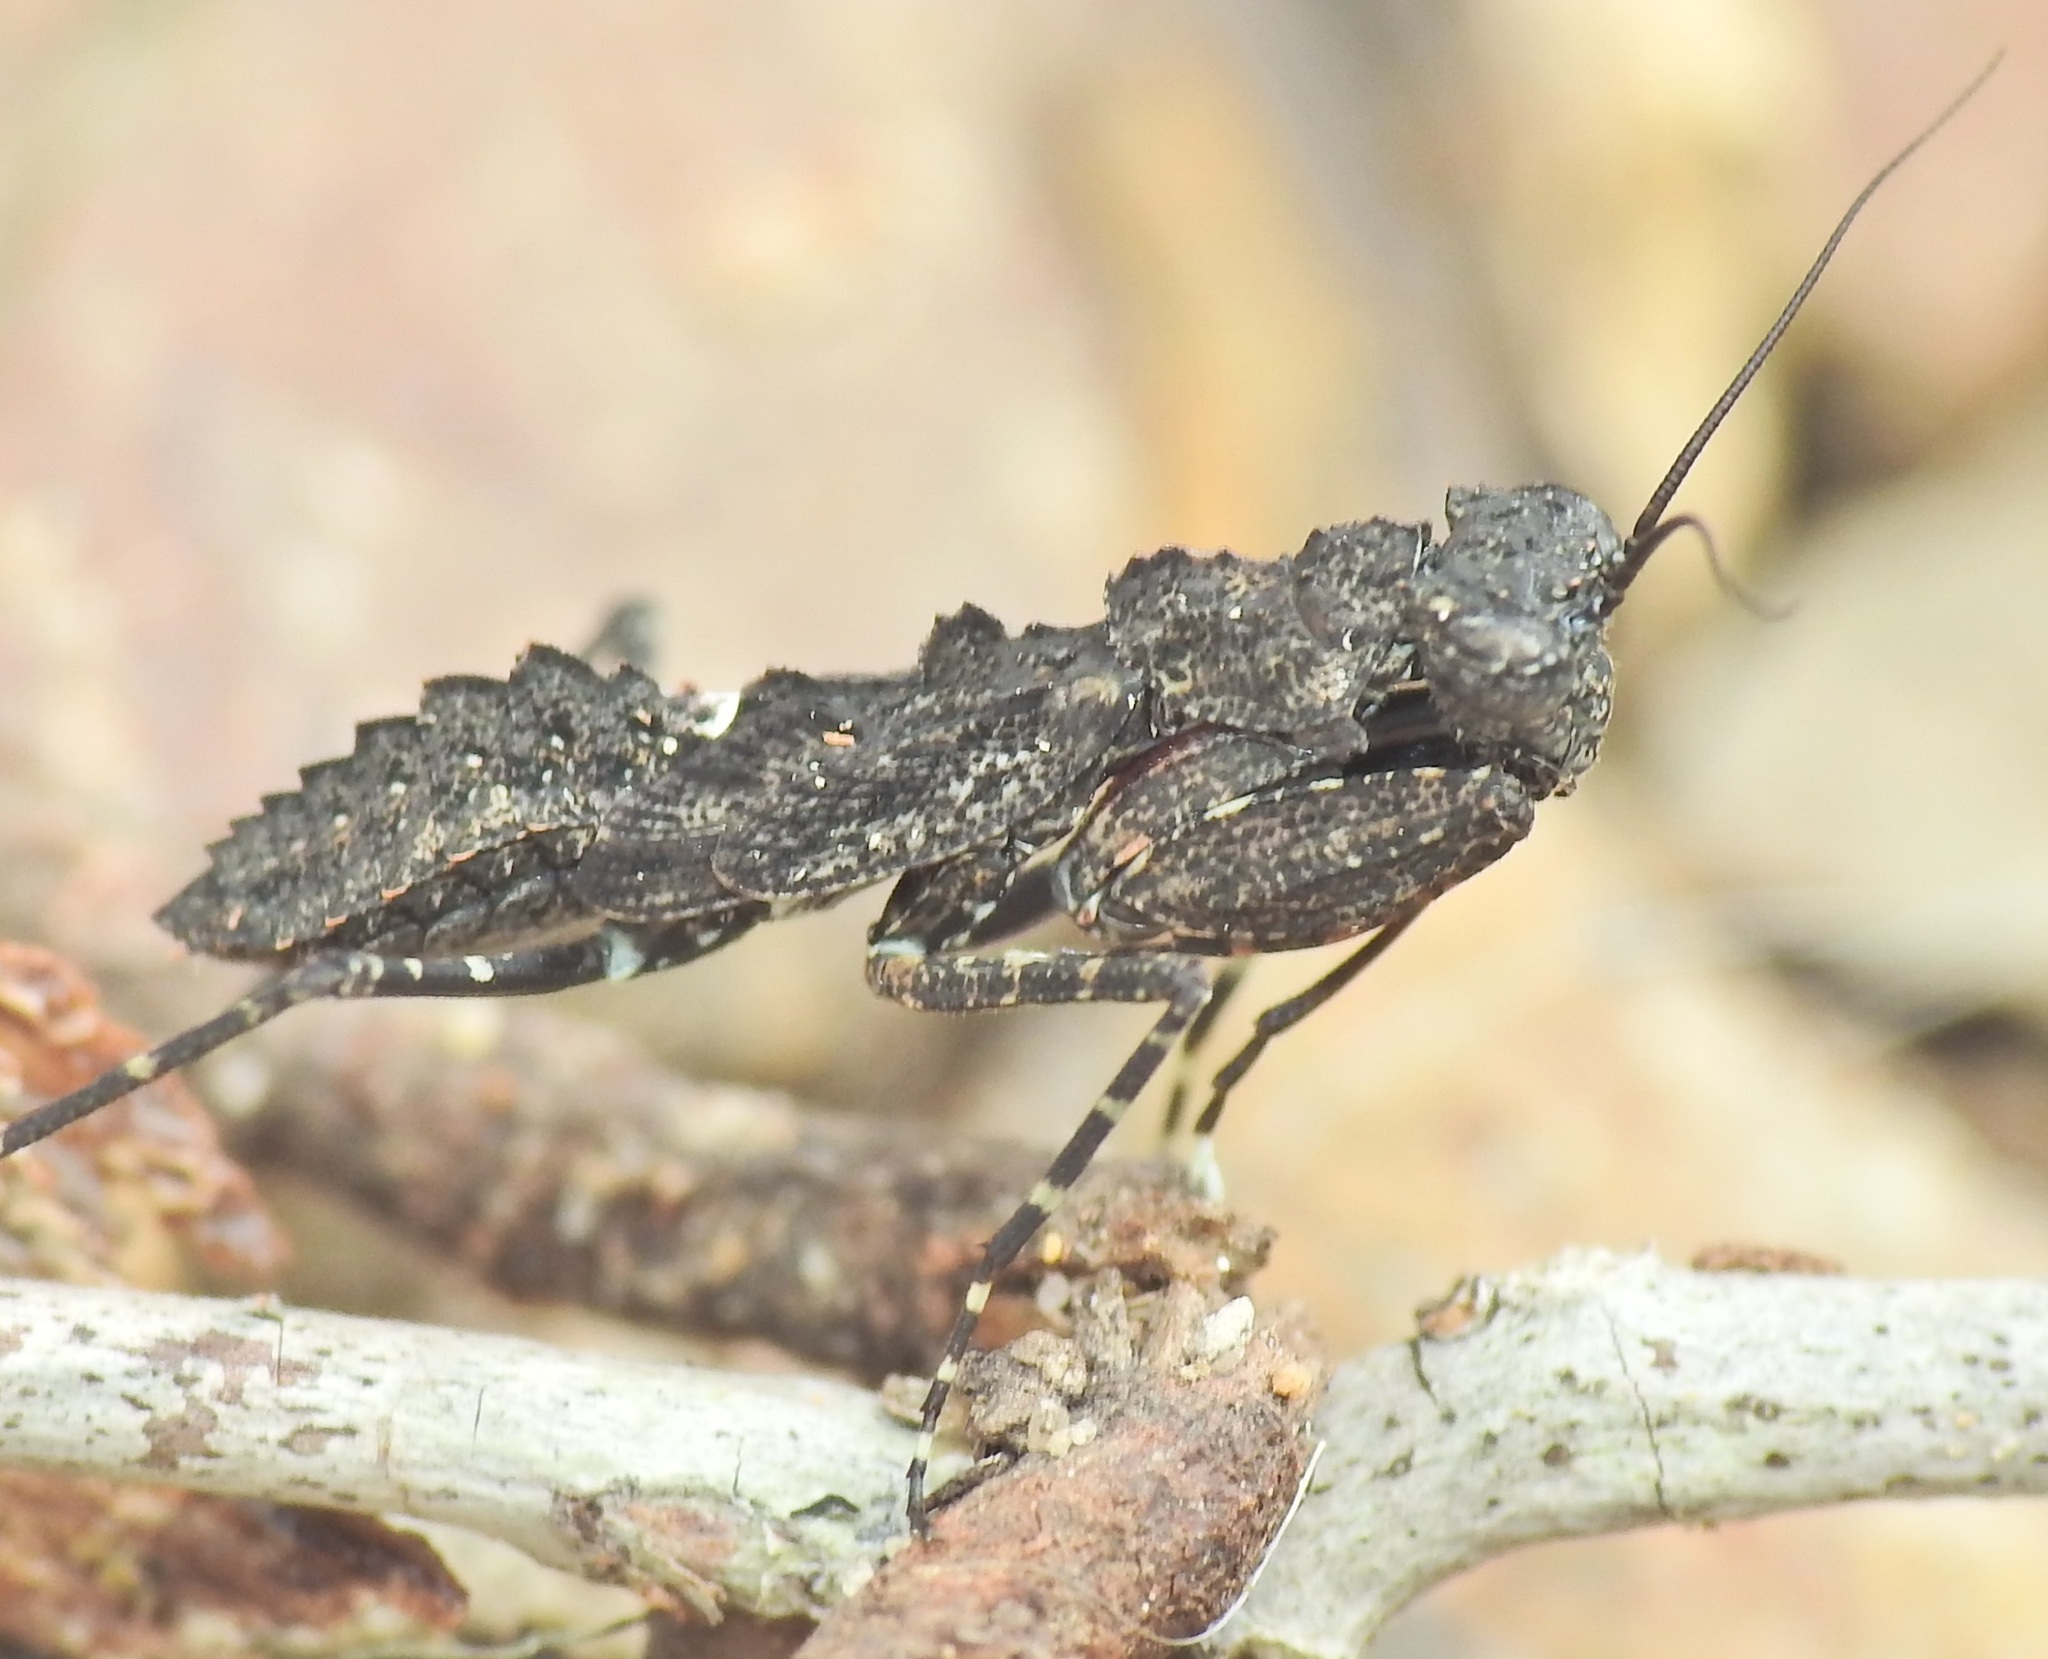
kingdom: Animalia
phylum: Arthropoda
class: Insecta
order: Mantodea
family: Nanomantidae
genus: Paraoxypilus
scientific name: Paraoxypilus verreauxii
